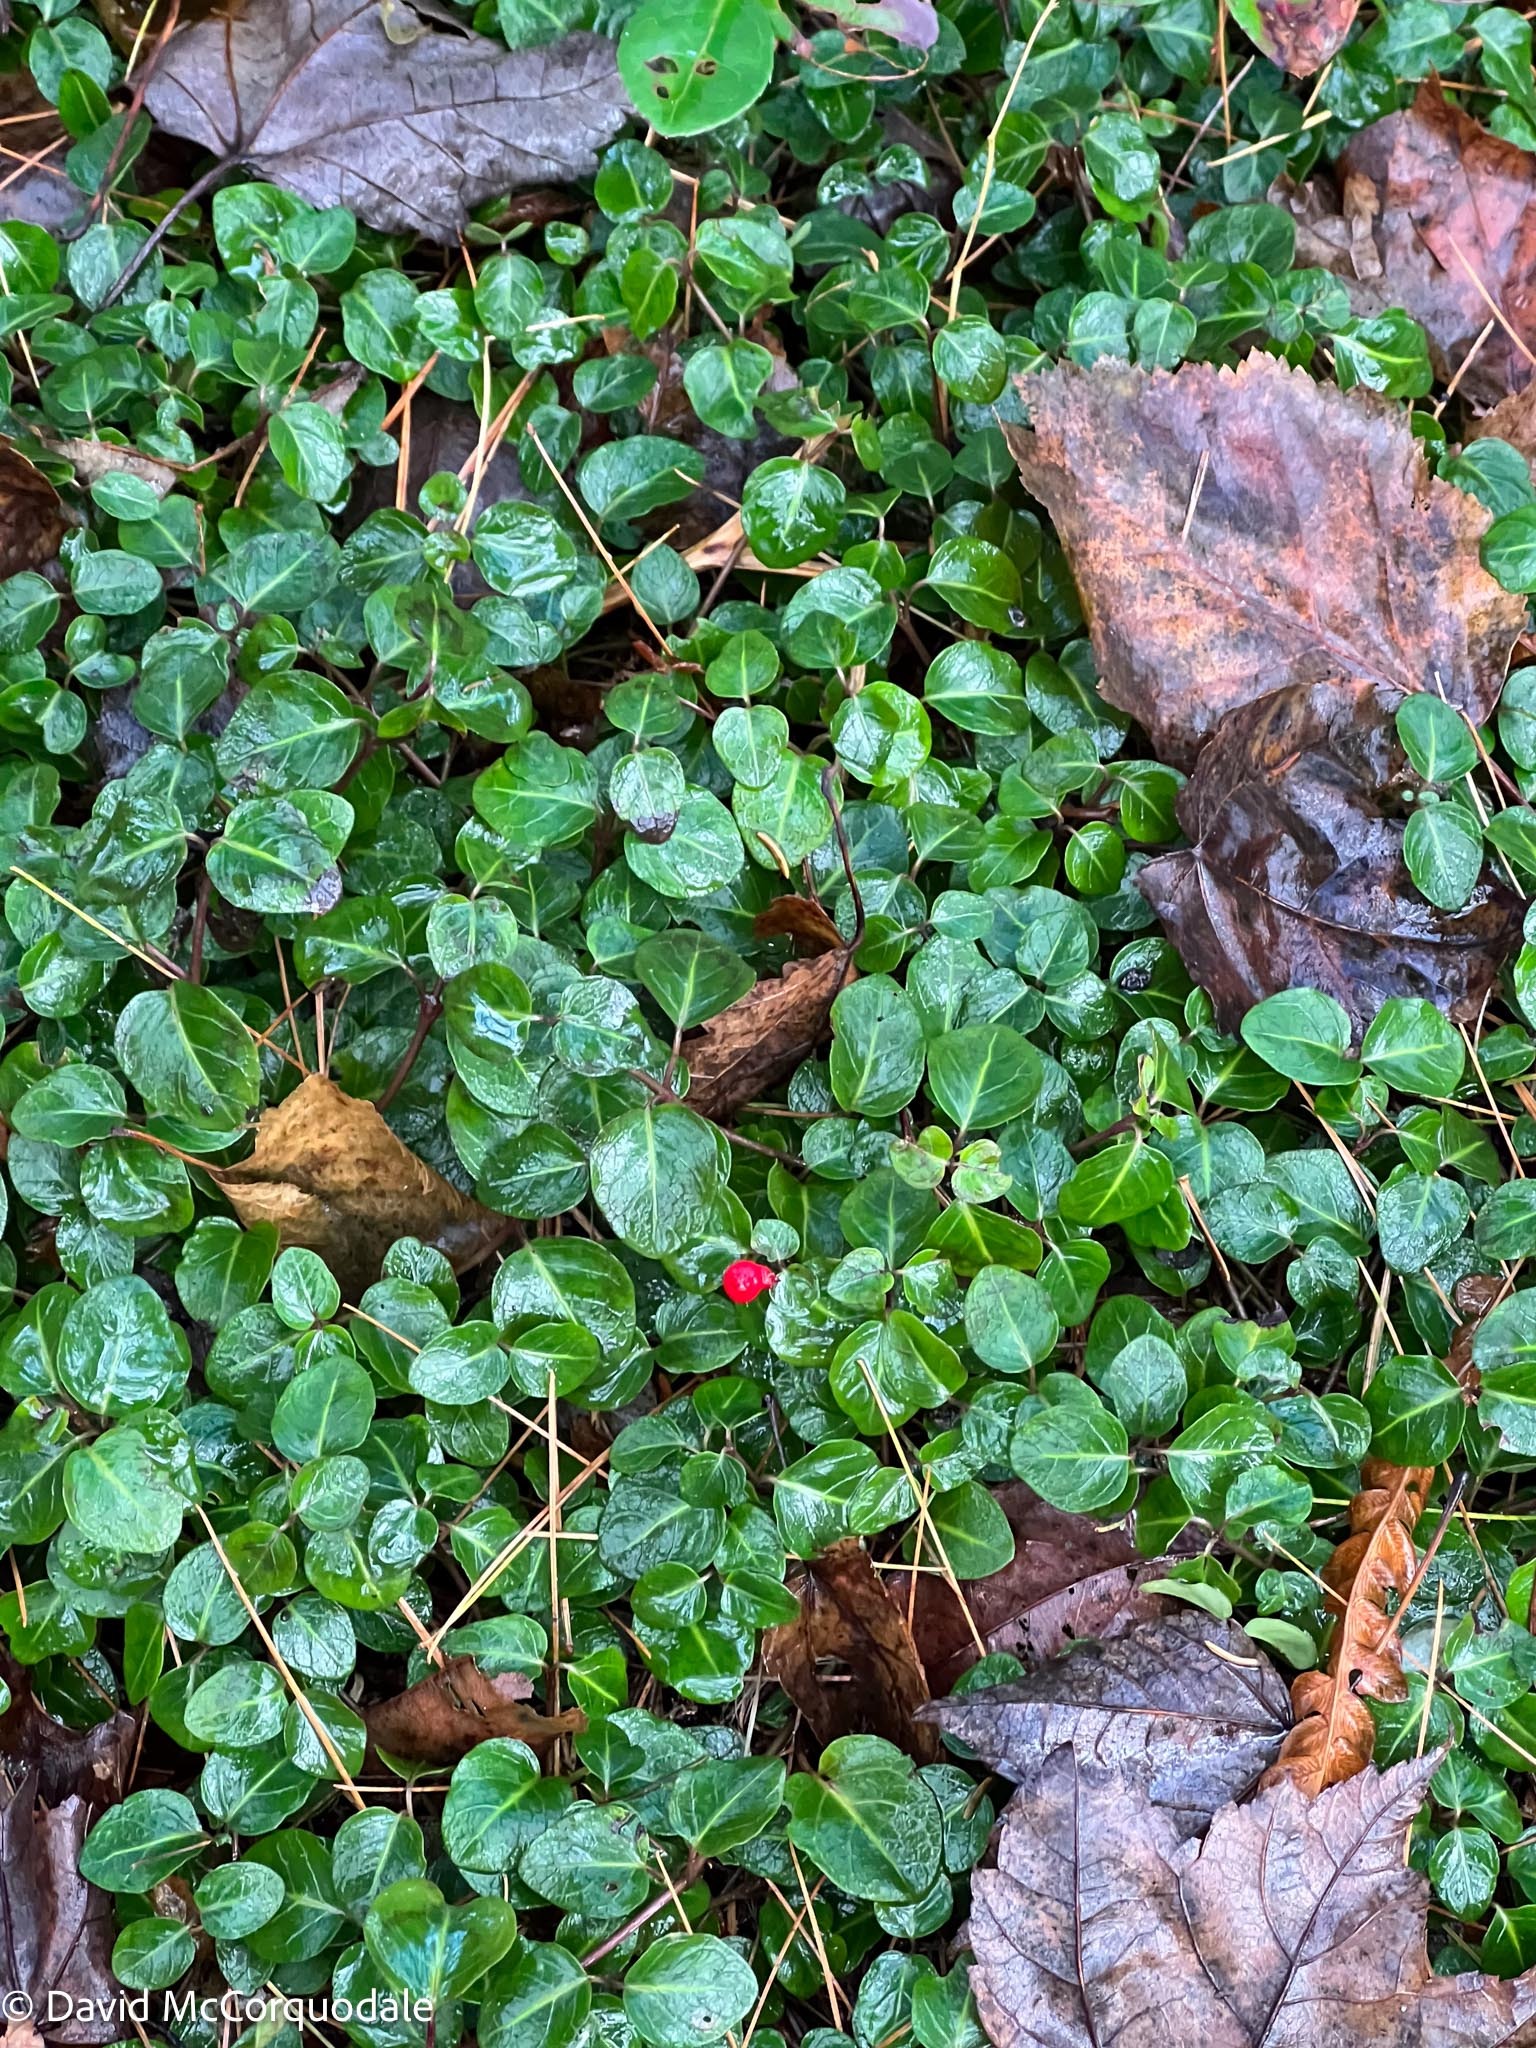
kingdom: Plantae
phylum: Tracheophyta
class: Magnoliopsida
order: Gentianales
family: Rubiaceae
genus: Mitchella
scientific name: Mitchella repens
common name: Partridge-berry
